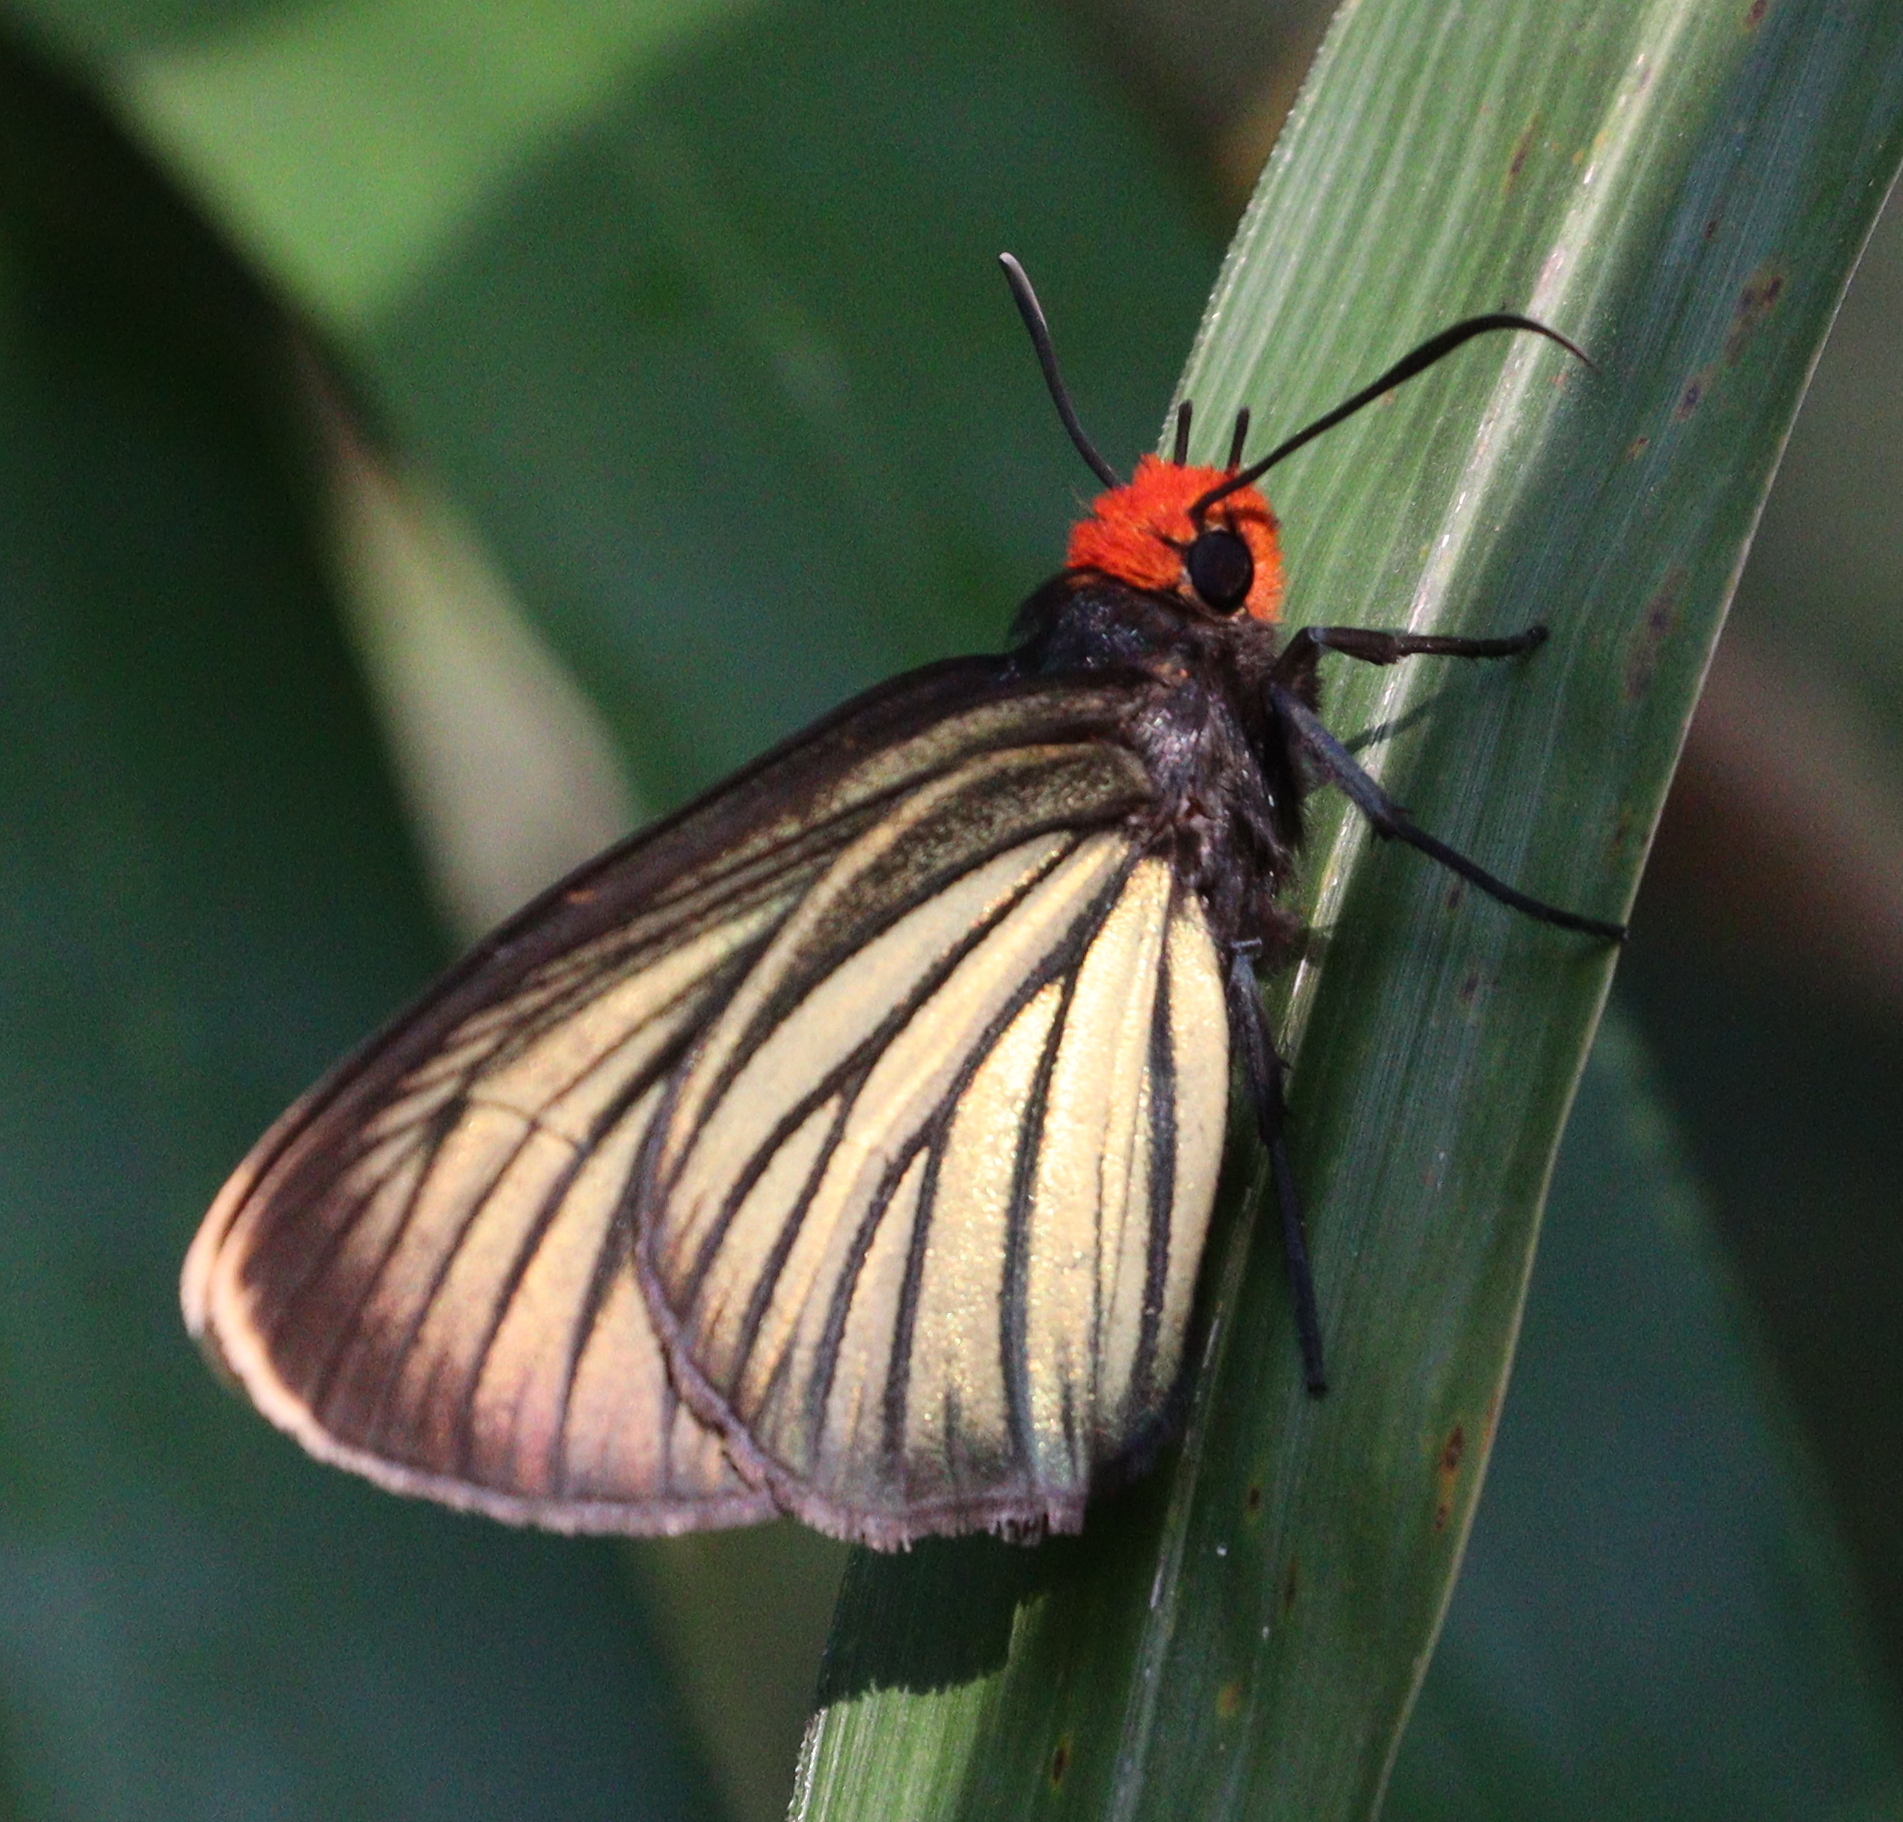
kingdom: Animalia
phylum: Arthropoda
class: Insecta
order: Lepidoptera
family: Hesperiidae
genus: Pyrrhochalcia
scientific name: Pyrrhochalcia iphis
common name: African giant skipper
